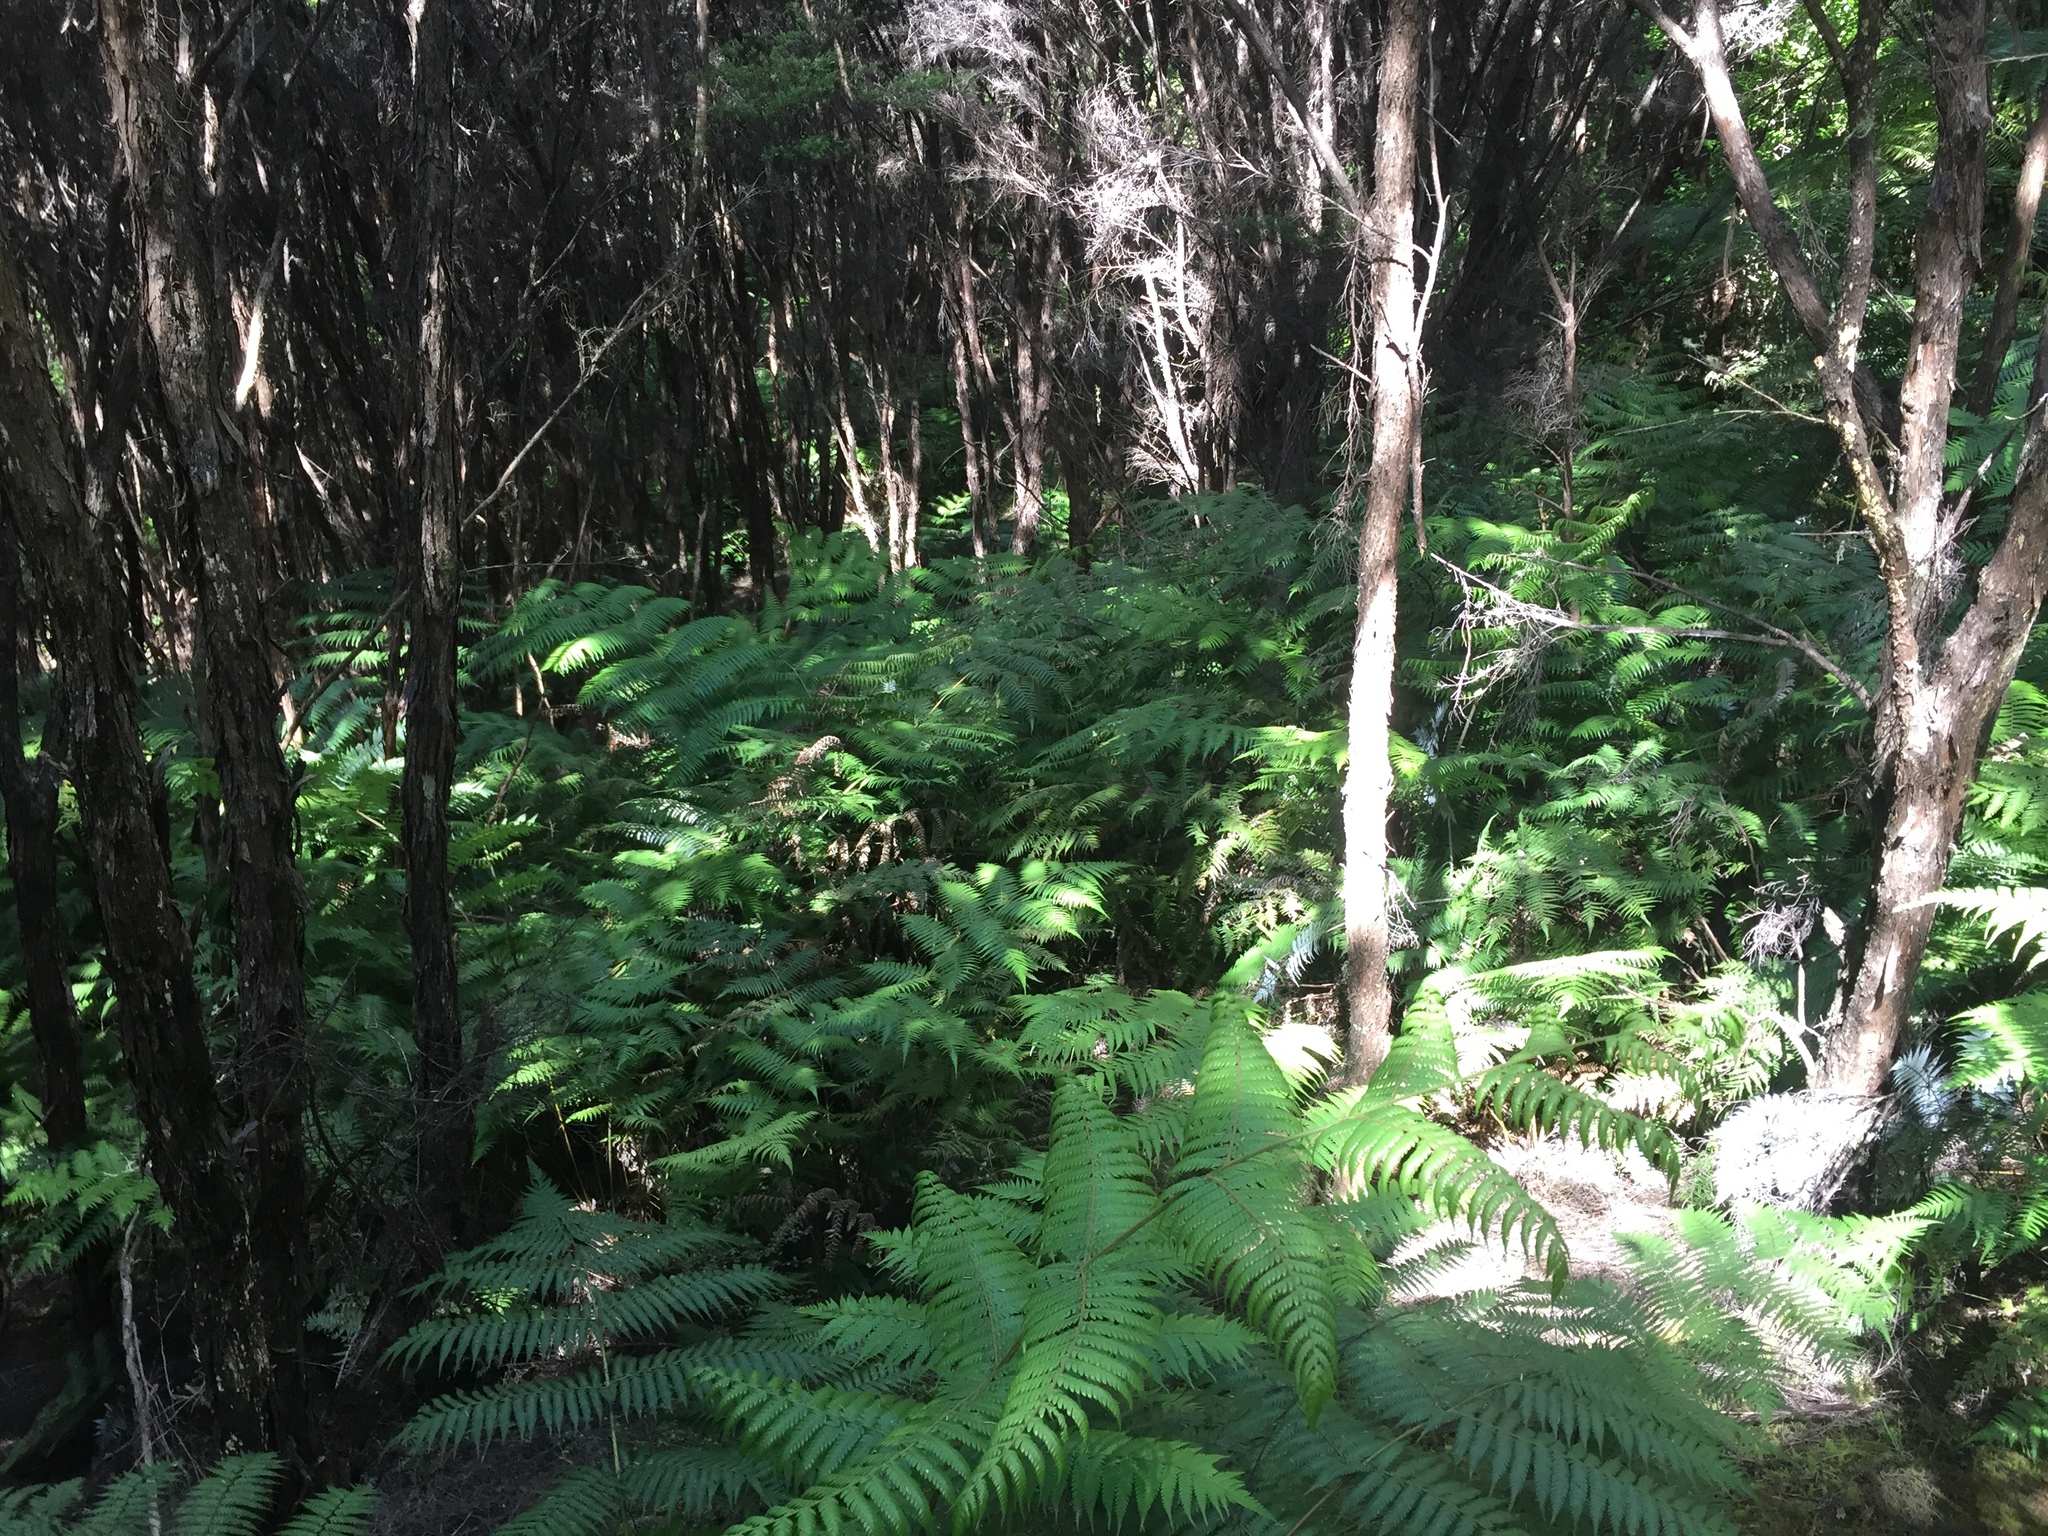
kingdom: Plantae
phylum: Tracheophyta
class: Polypodiopsida
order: Cyatheales
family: Cyatheaceae
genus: Alsophila
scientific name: Alsophila dealbata
